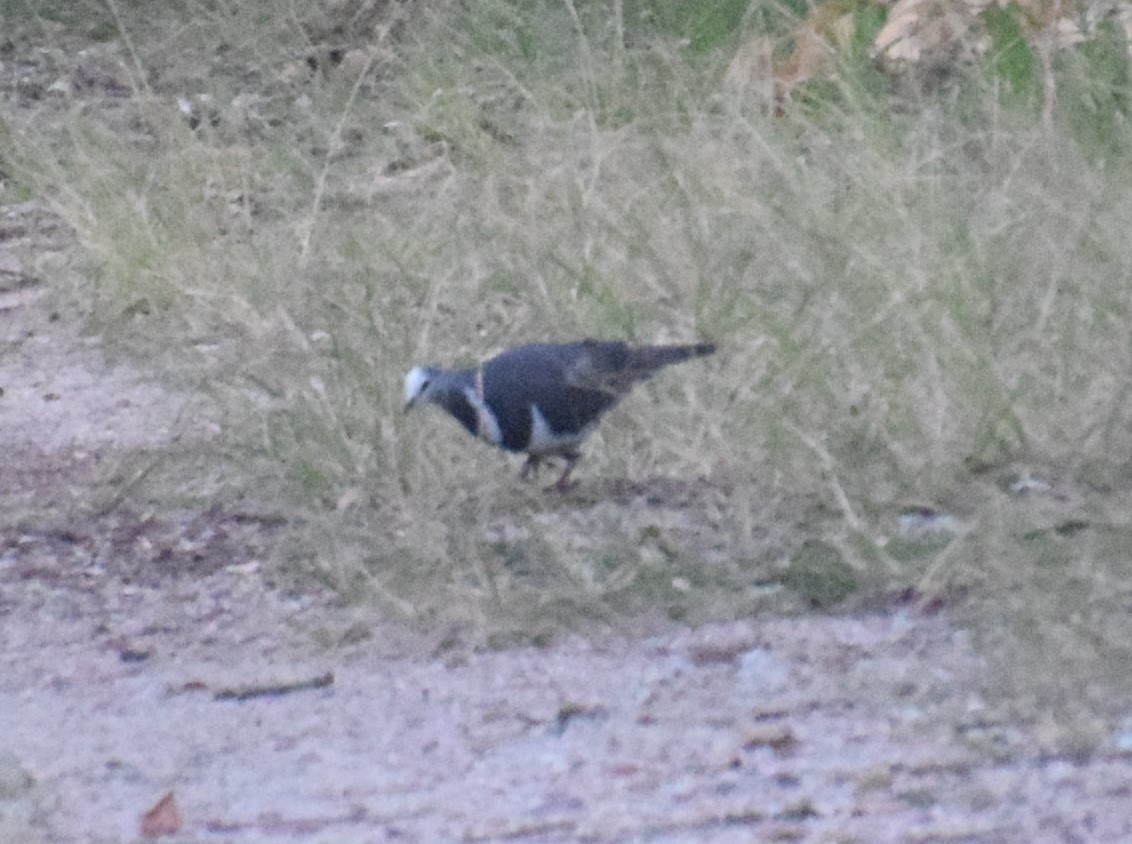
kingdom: Animalia
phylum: Chordata
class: Aves
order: Columbiformes
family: Columbidae
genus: Leucosarcia
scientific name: Leucosarcia melanoleuca
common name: Wonga pigeon
